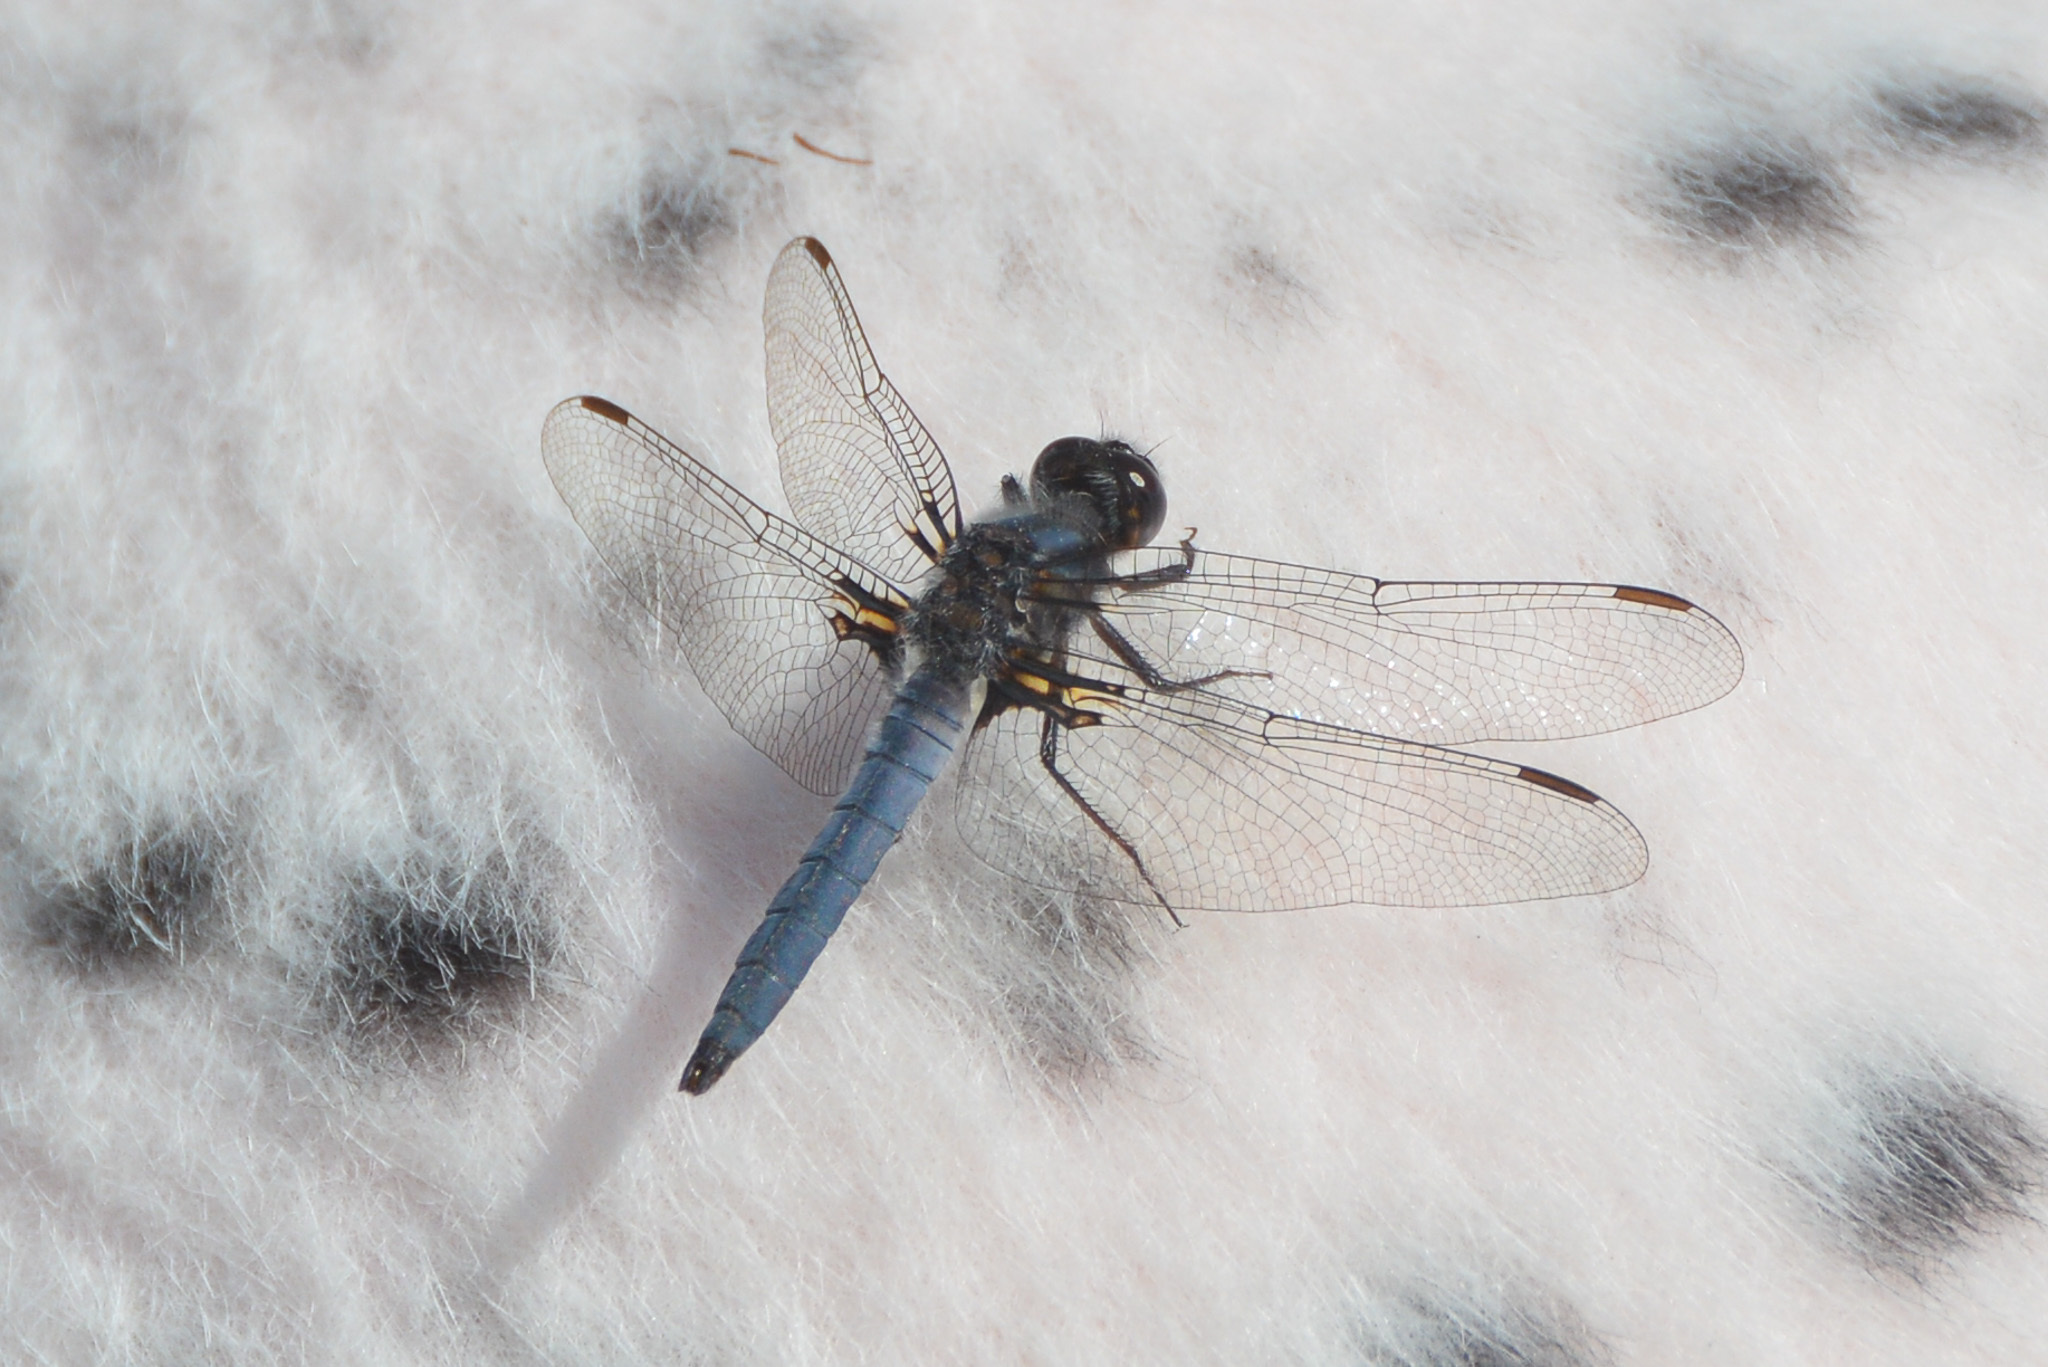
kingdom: Animalia
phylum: Arthropoda
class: Insecta
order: Odonata
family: Libellulidae
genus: Ladona
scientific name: Ladona deplanata
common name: Blue corporal
